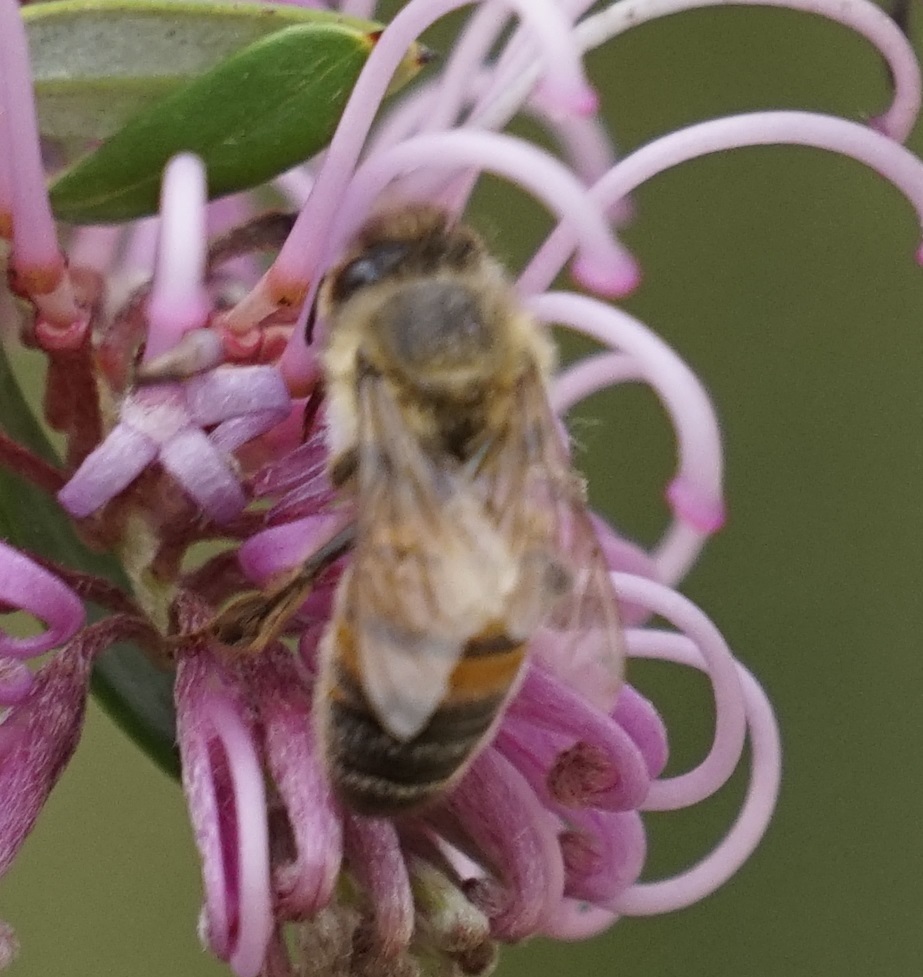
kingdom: Animalia
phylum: Arthropoda
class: Insecta
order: Hymenoptera
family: Apidae
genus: Apis
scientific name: Apis mellifera
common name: Honey bee
